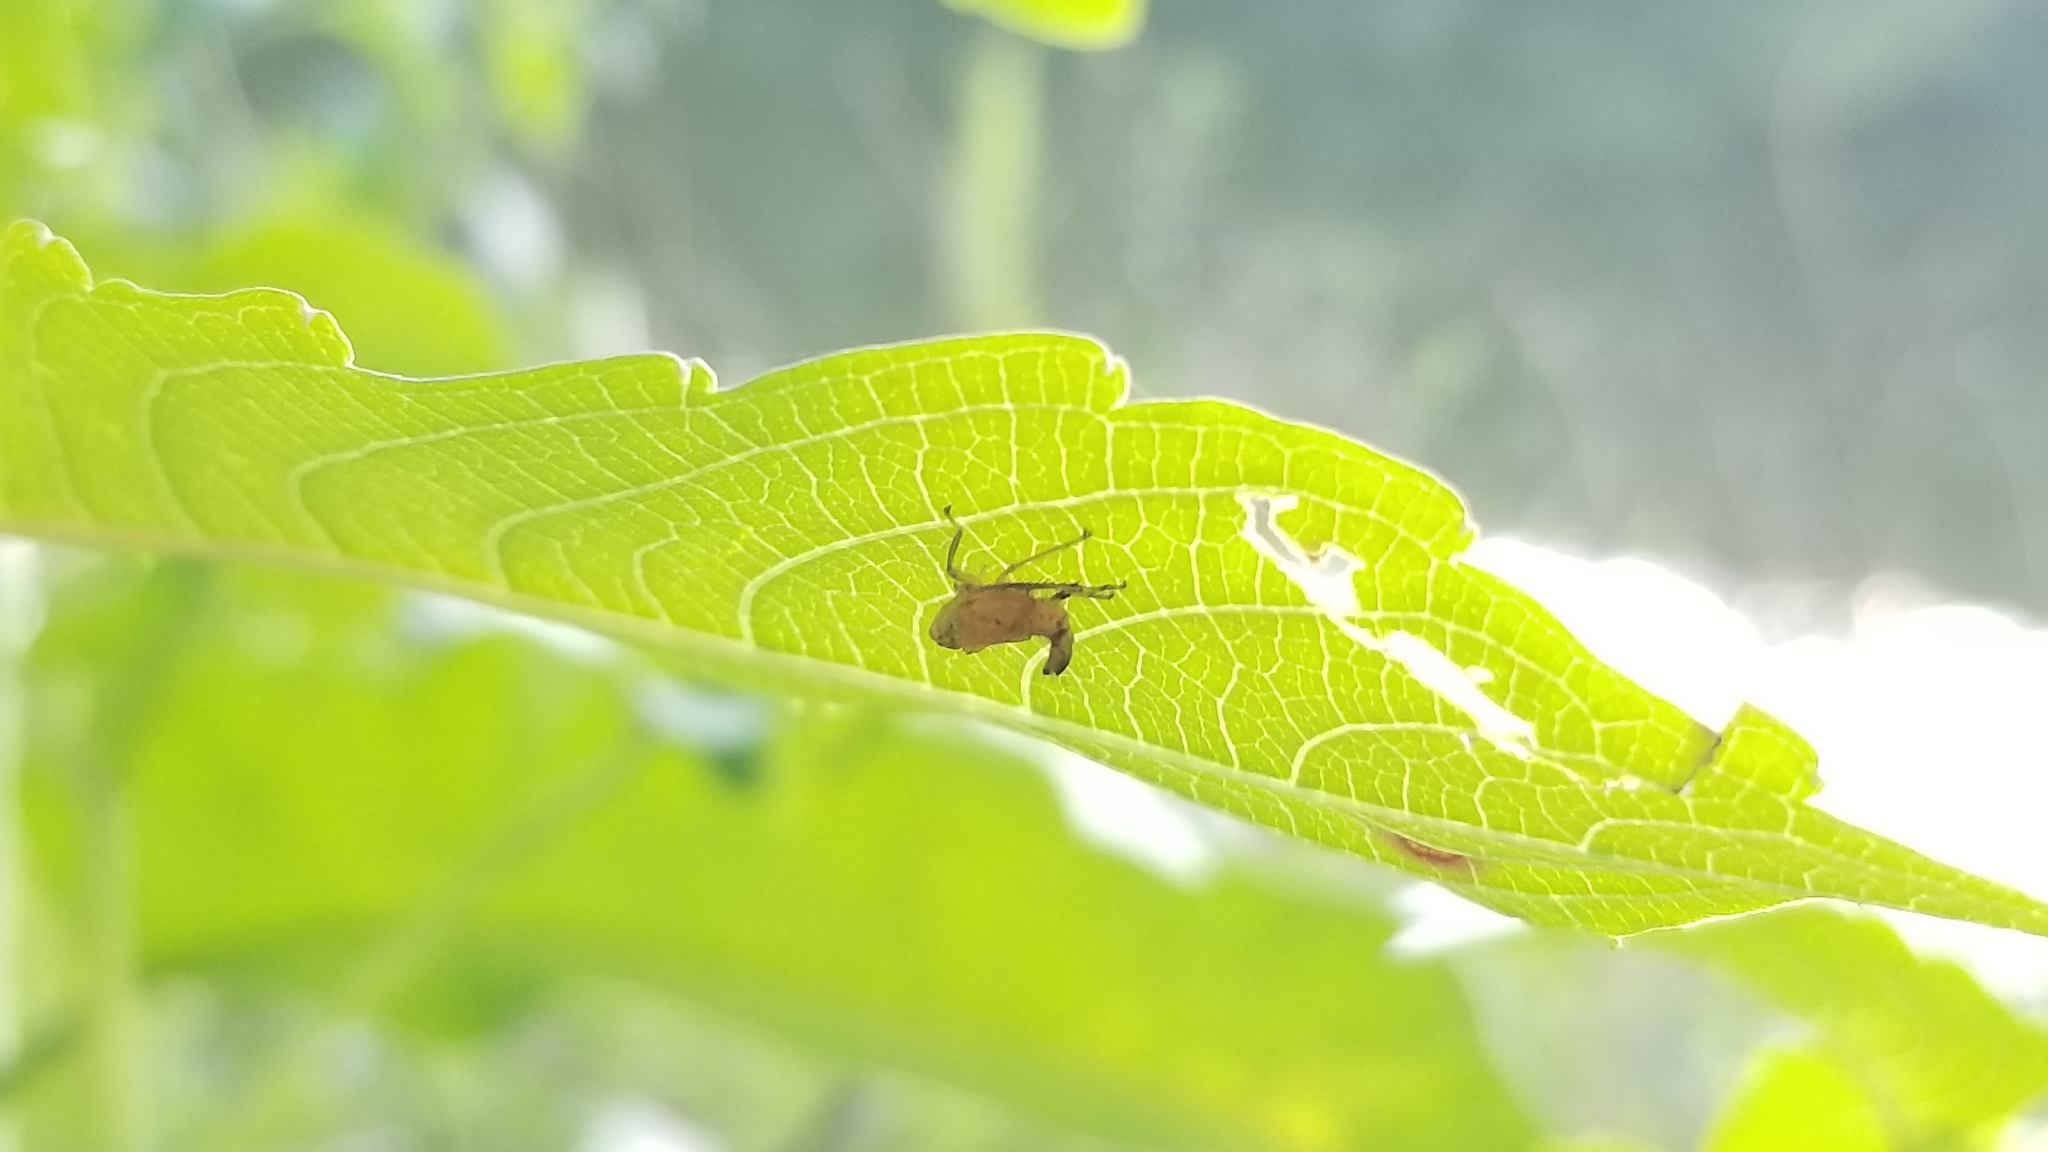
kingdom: Animalia
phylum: Arthropoda
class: Insecta
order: Hemiptera
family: Cicadellidae
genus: Jikradia
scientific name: Jikradia olitoria
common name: Coppery leafhopper
